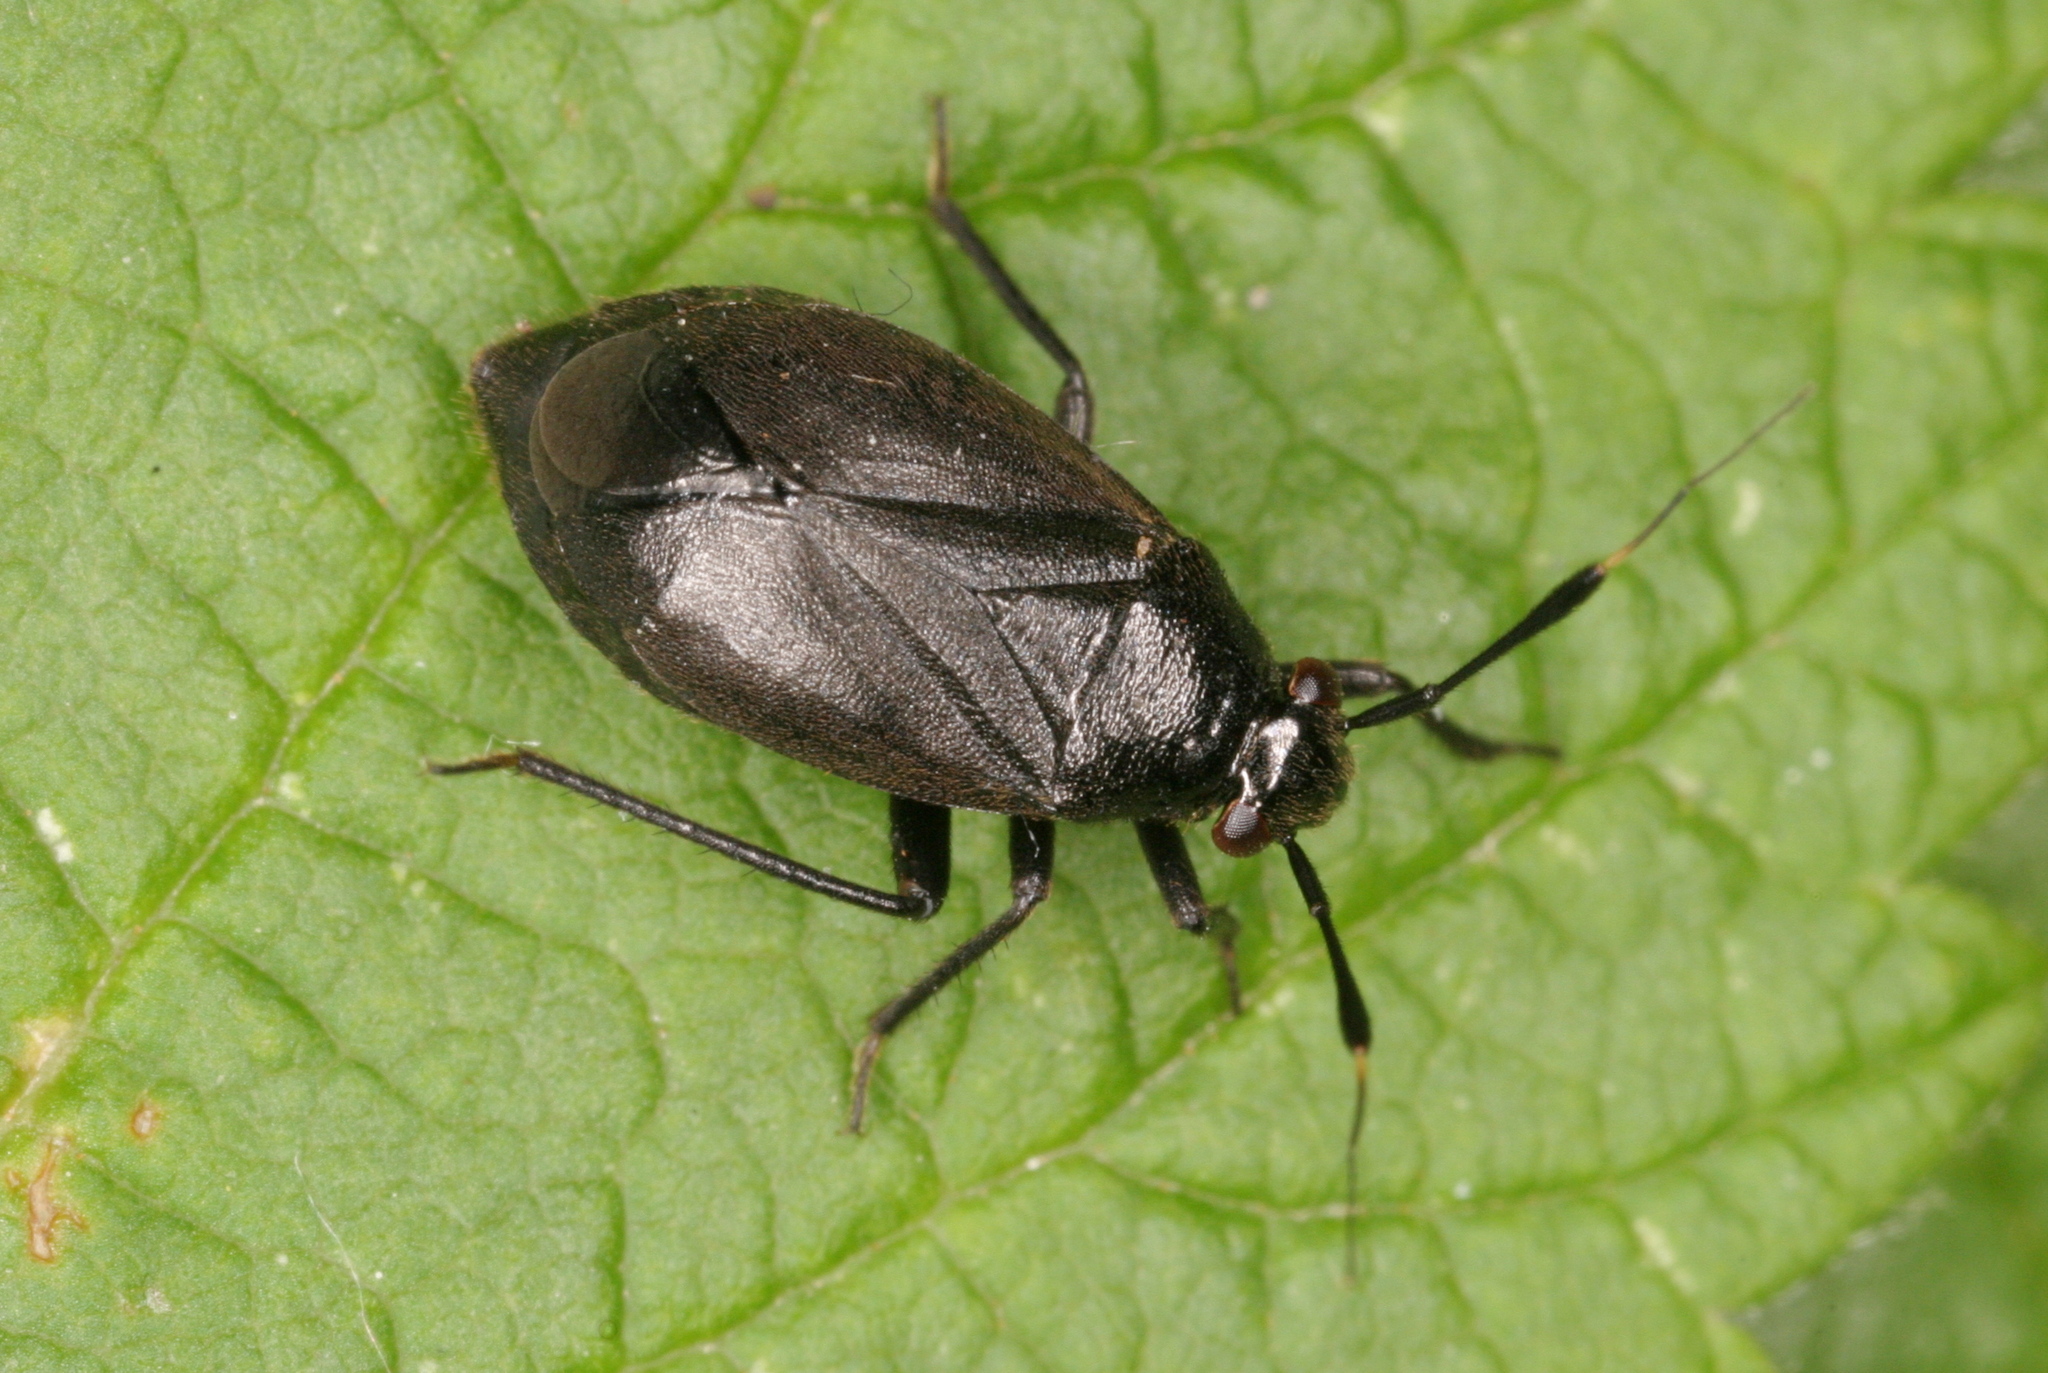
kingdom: Animalia
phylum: Arthropoda
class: Insecta
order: Hemiptera
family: Miridae
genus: Capsus
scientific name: Capsus ater
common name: Black plant bug
